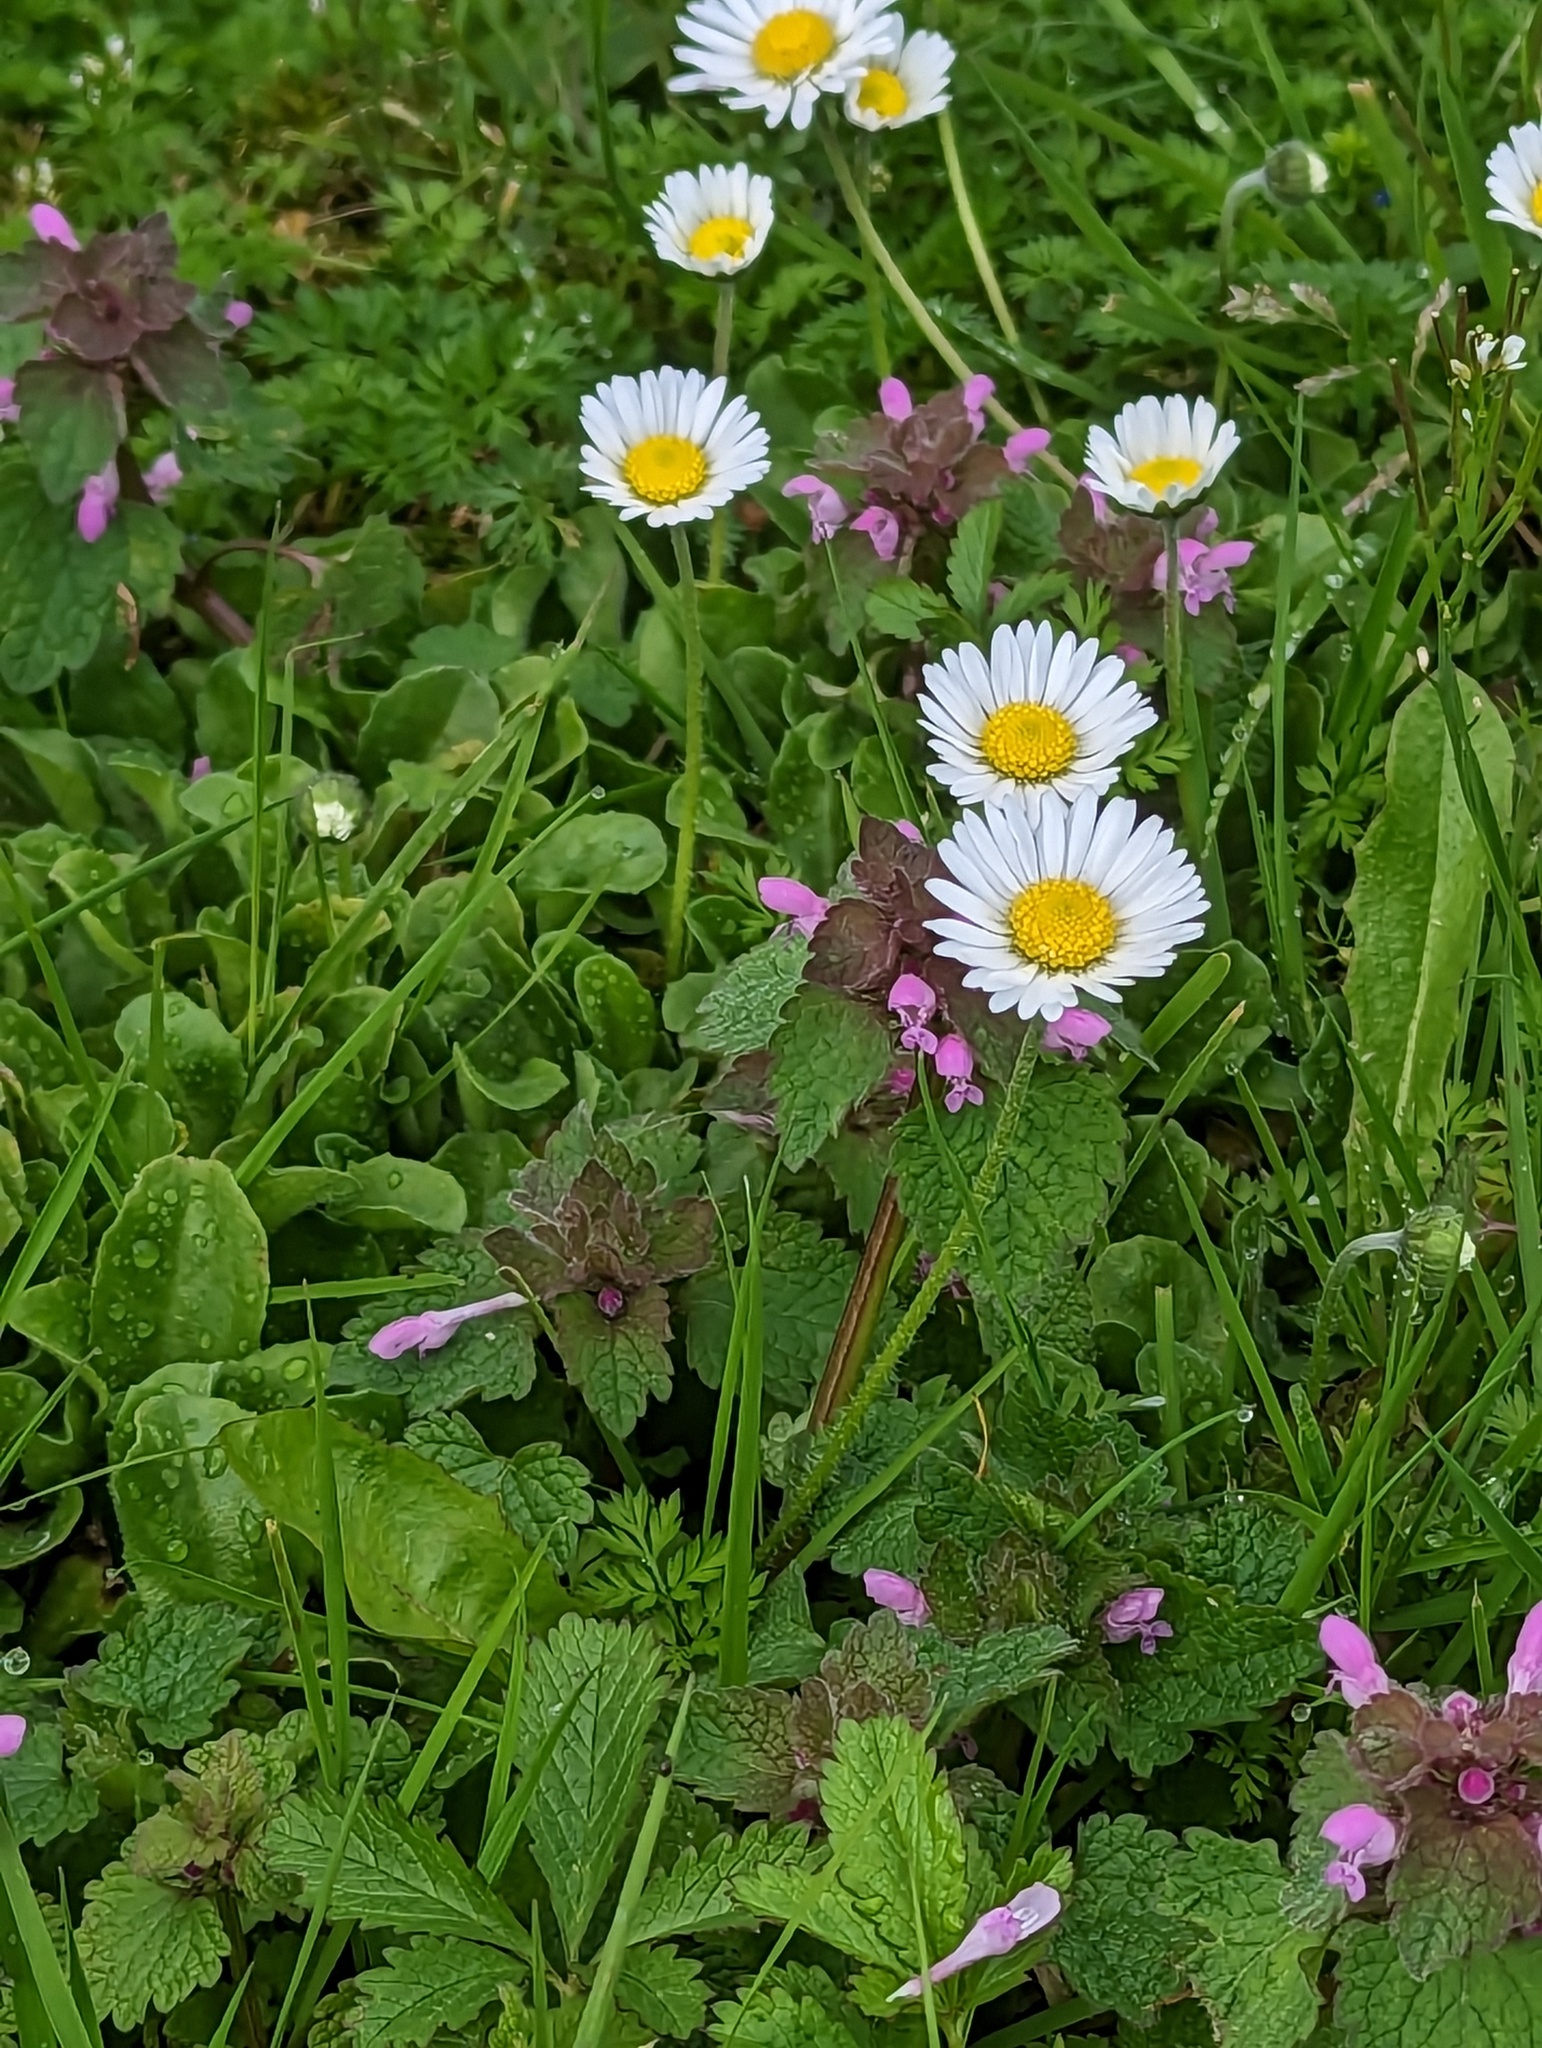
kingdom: Plantae
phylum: Tracheophyta
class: Magnoliopsida
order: Asterales
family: Asteraceae
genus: Bellis
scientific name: Bellis perennis
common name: Lawndaisy
